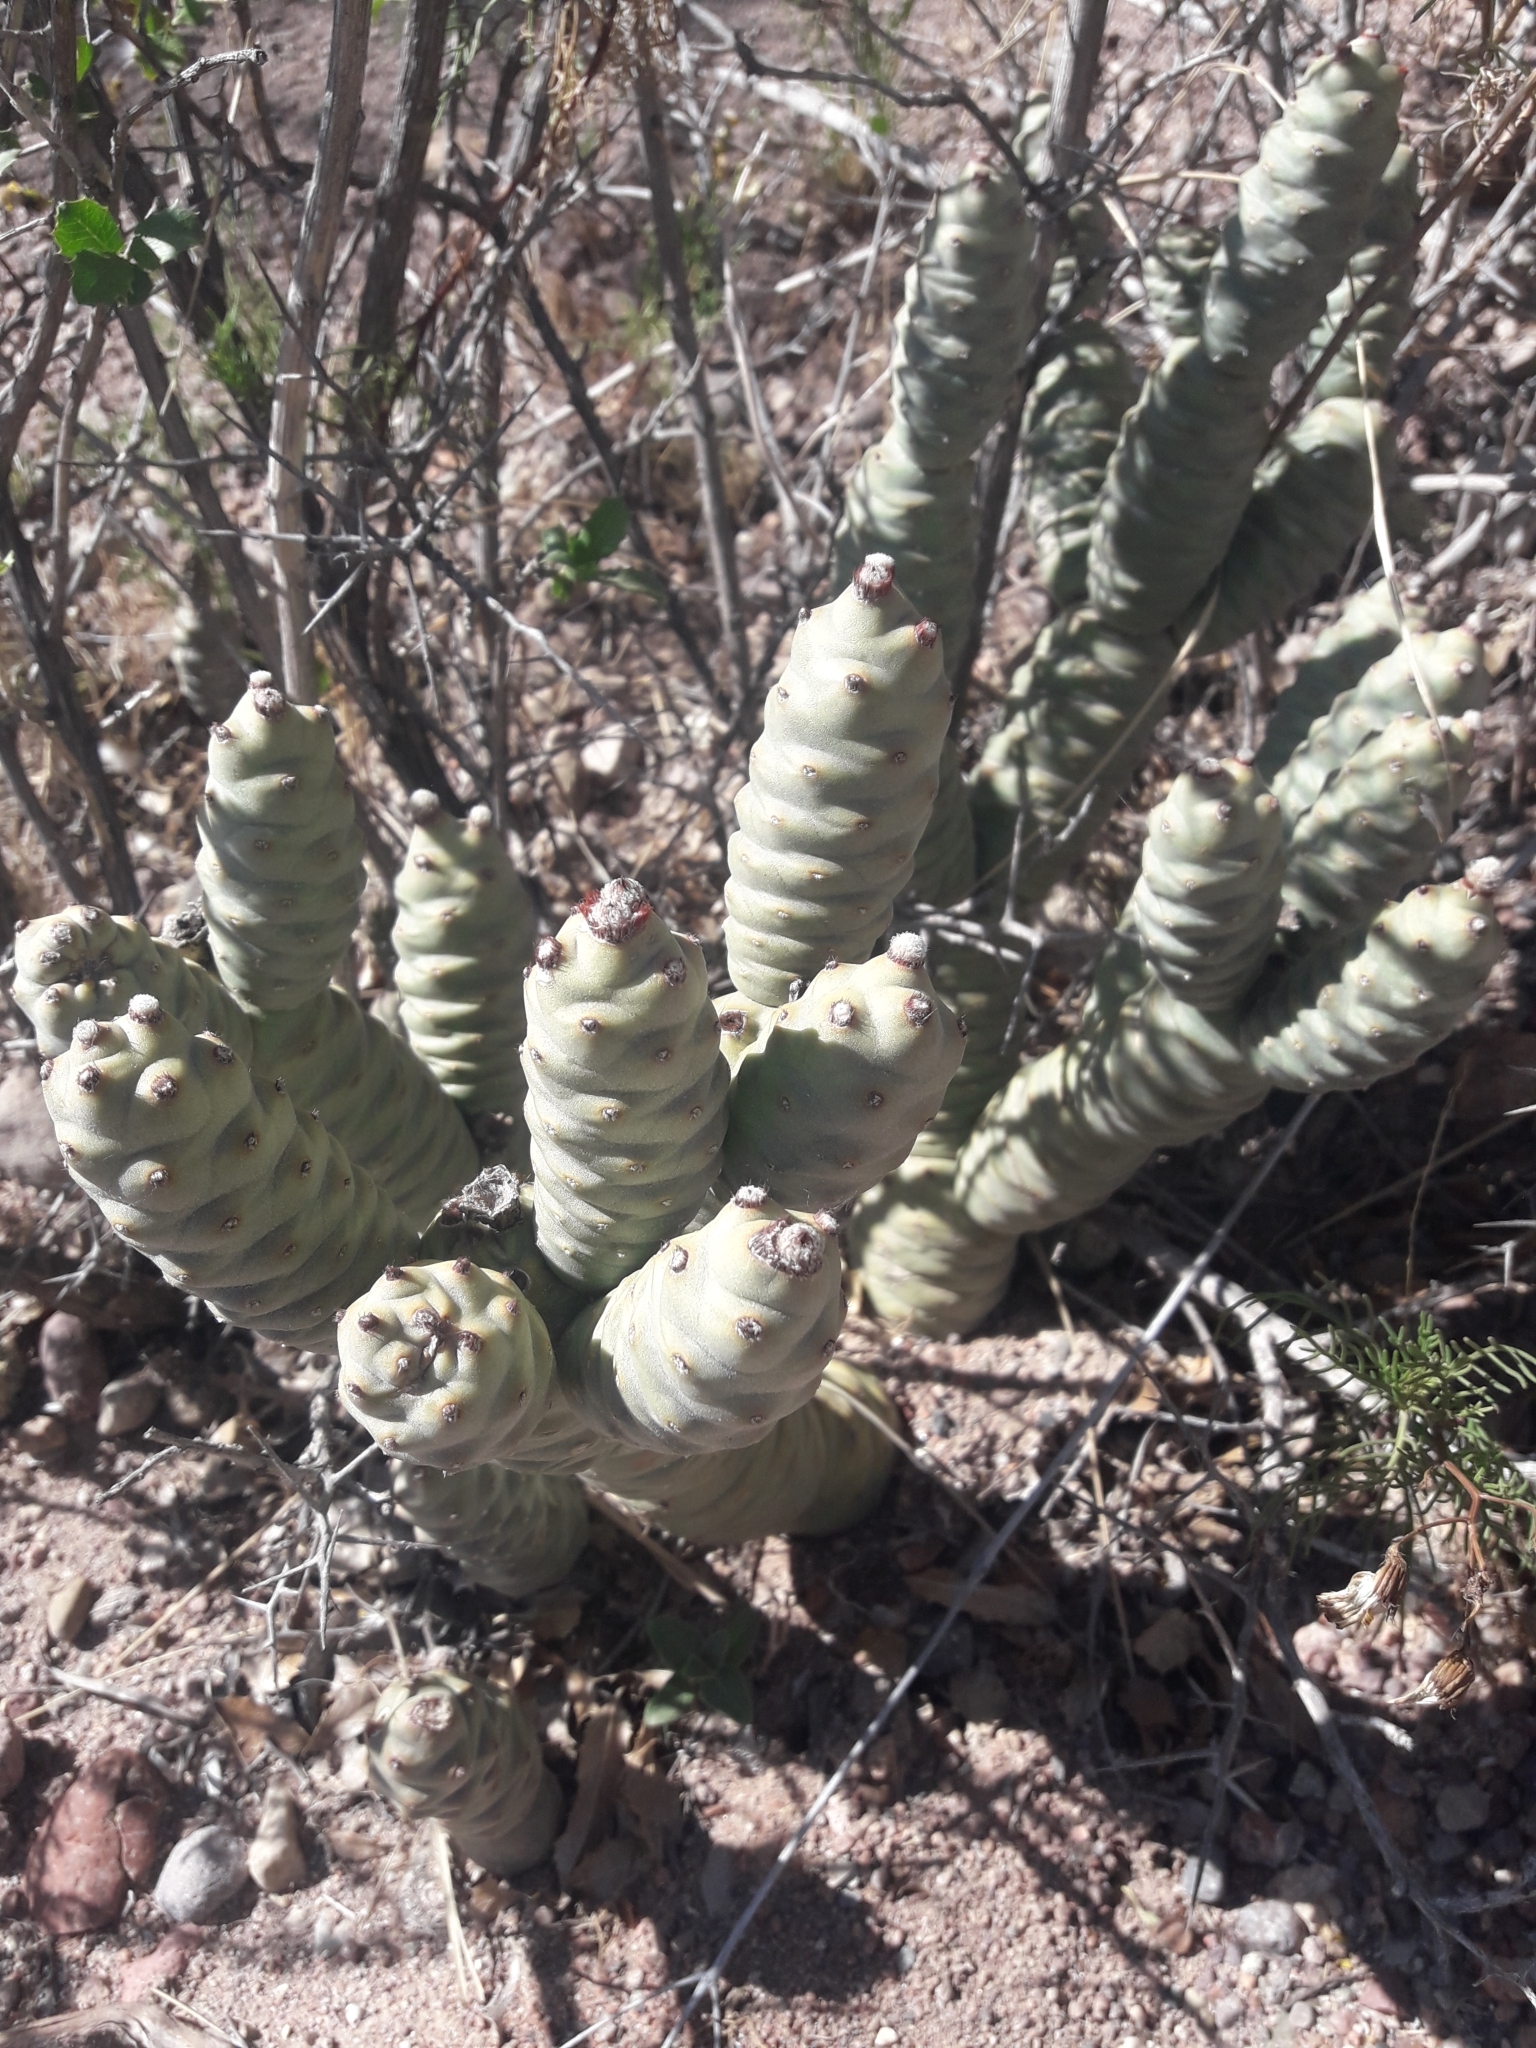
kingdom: Plantae
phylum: Tracheophyta
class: Magnoliopsida
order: Caryophyllales
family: Cactaceae
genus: Tephrocactus
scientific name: Tephrocactus articulatus
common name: Paper cactus
